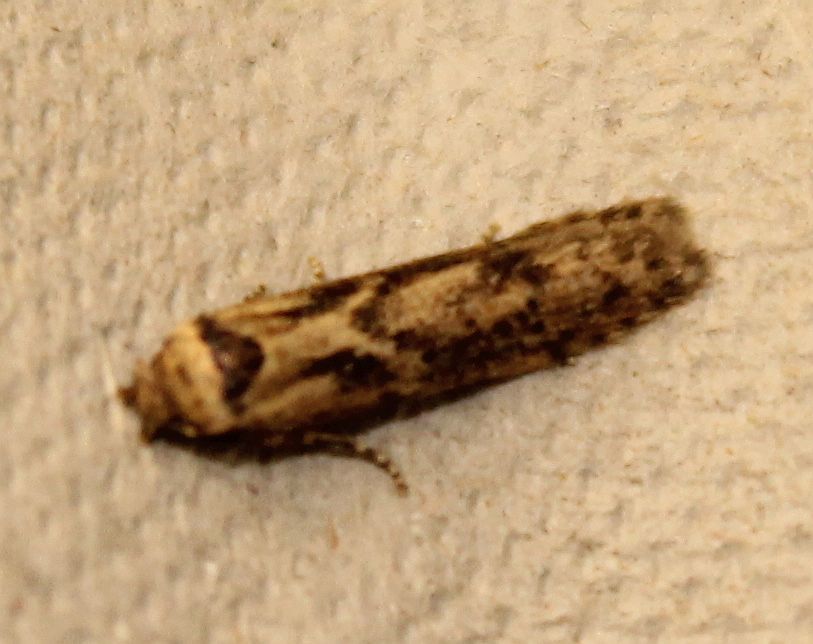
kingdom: Animalia
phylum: Arthropoda
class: Insecta
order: Lepidoptera
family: Blastobasidae
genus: Blastobasis
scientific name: Blastobasis adustella
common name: Dingy dowd
